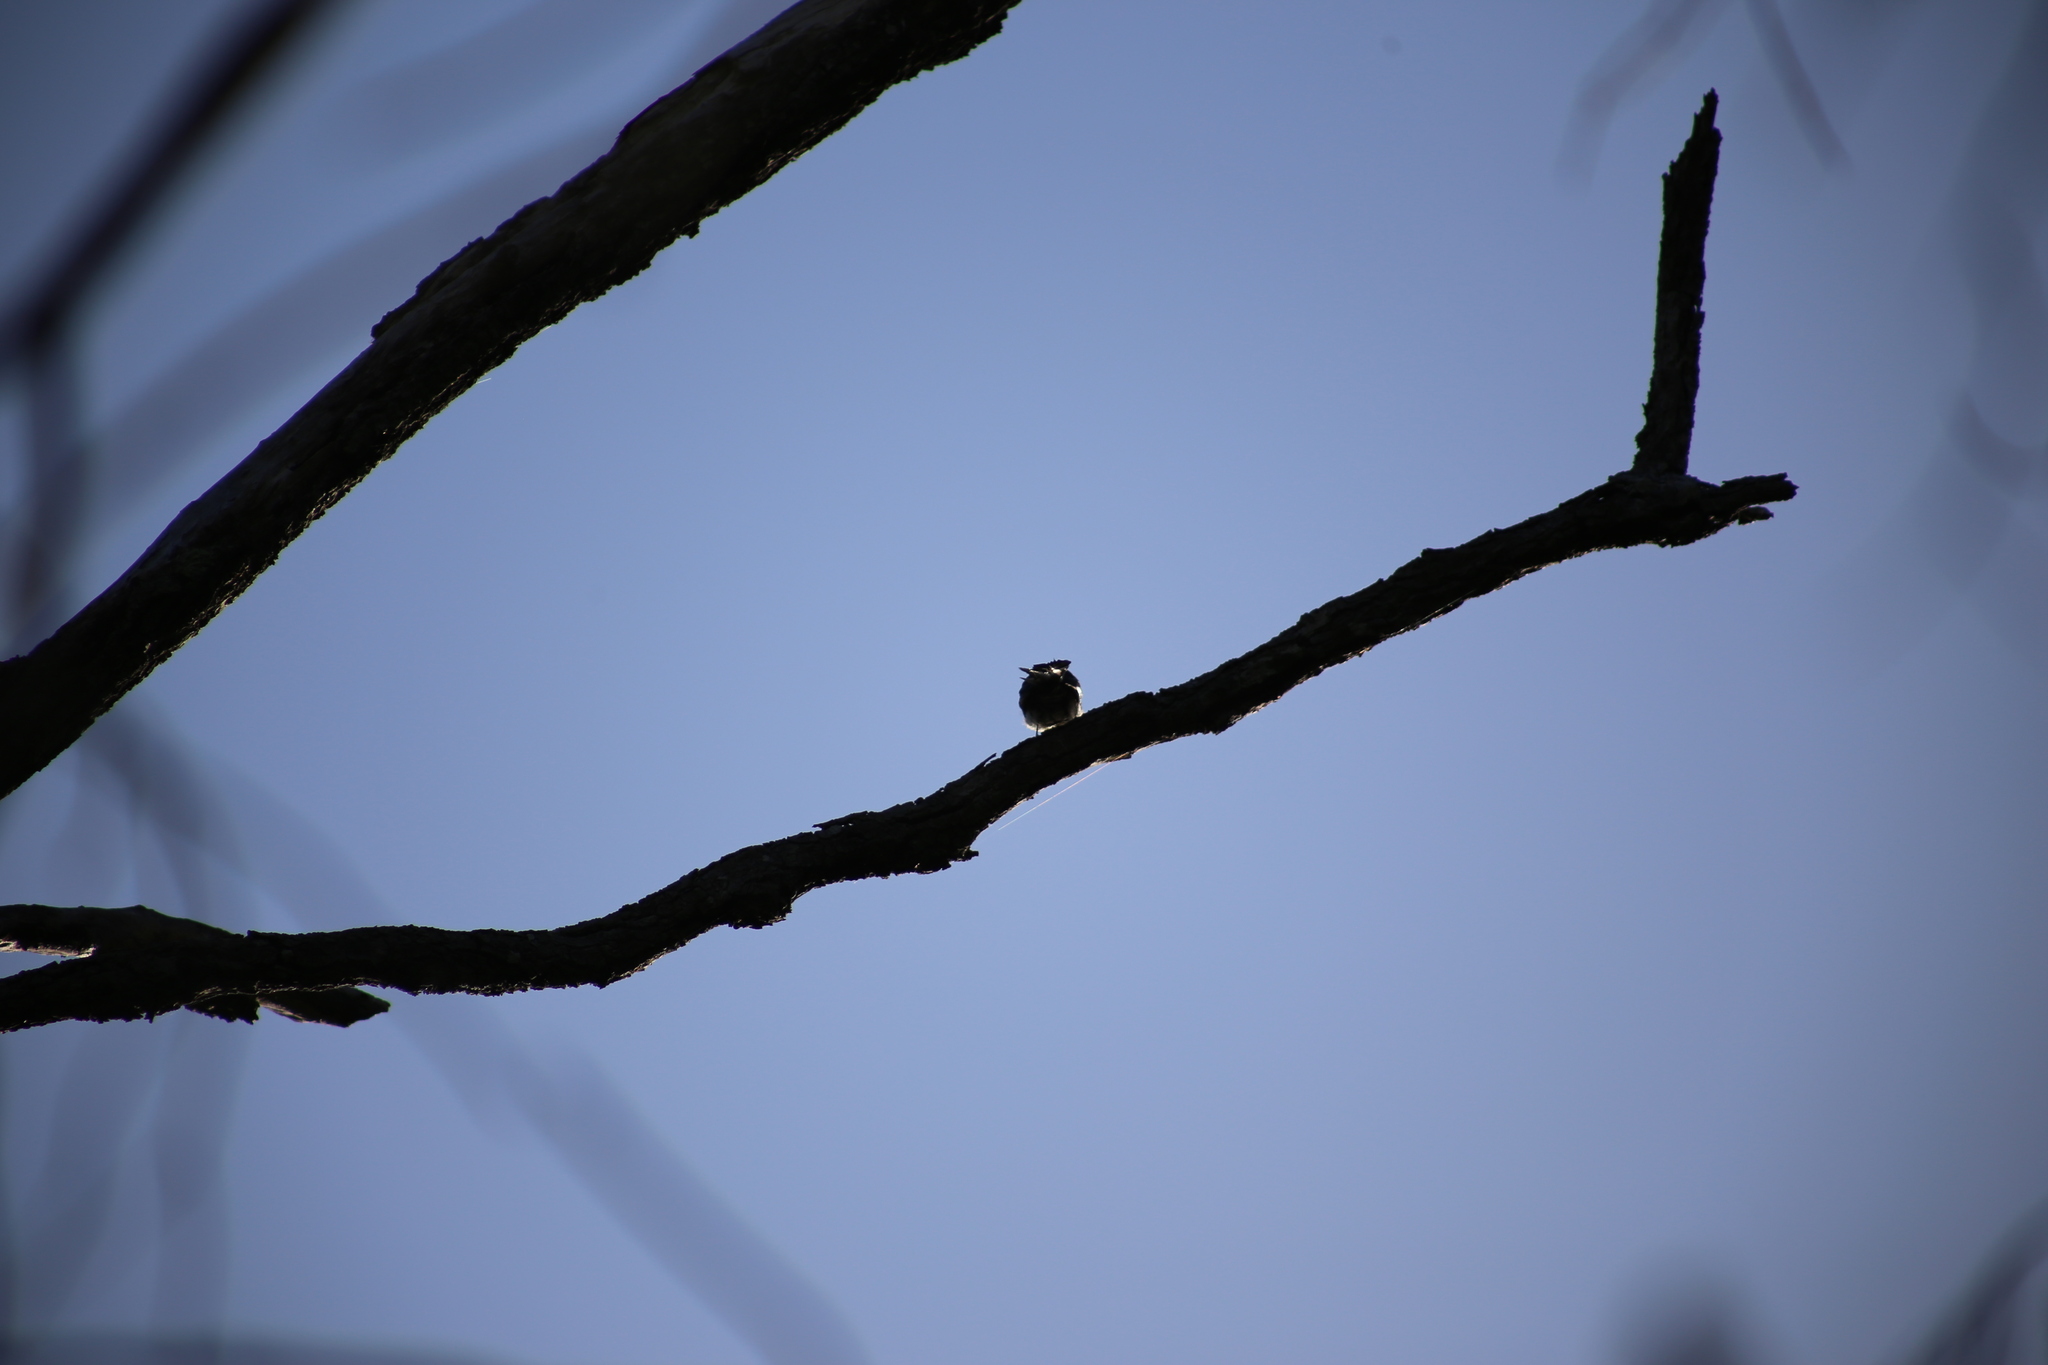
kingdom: Animalia
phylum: Chordata
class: Aves
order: Passeriformes
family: Rhipiduridae
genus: Rhipidura
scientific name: Rhipidura leucophrys
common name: Willie wagtail
